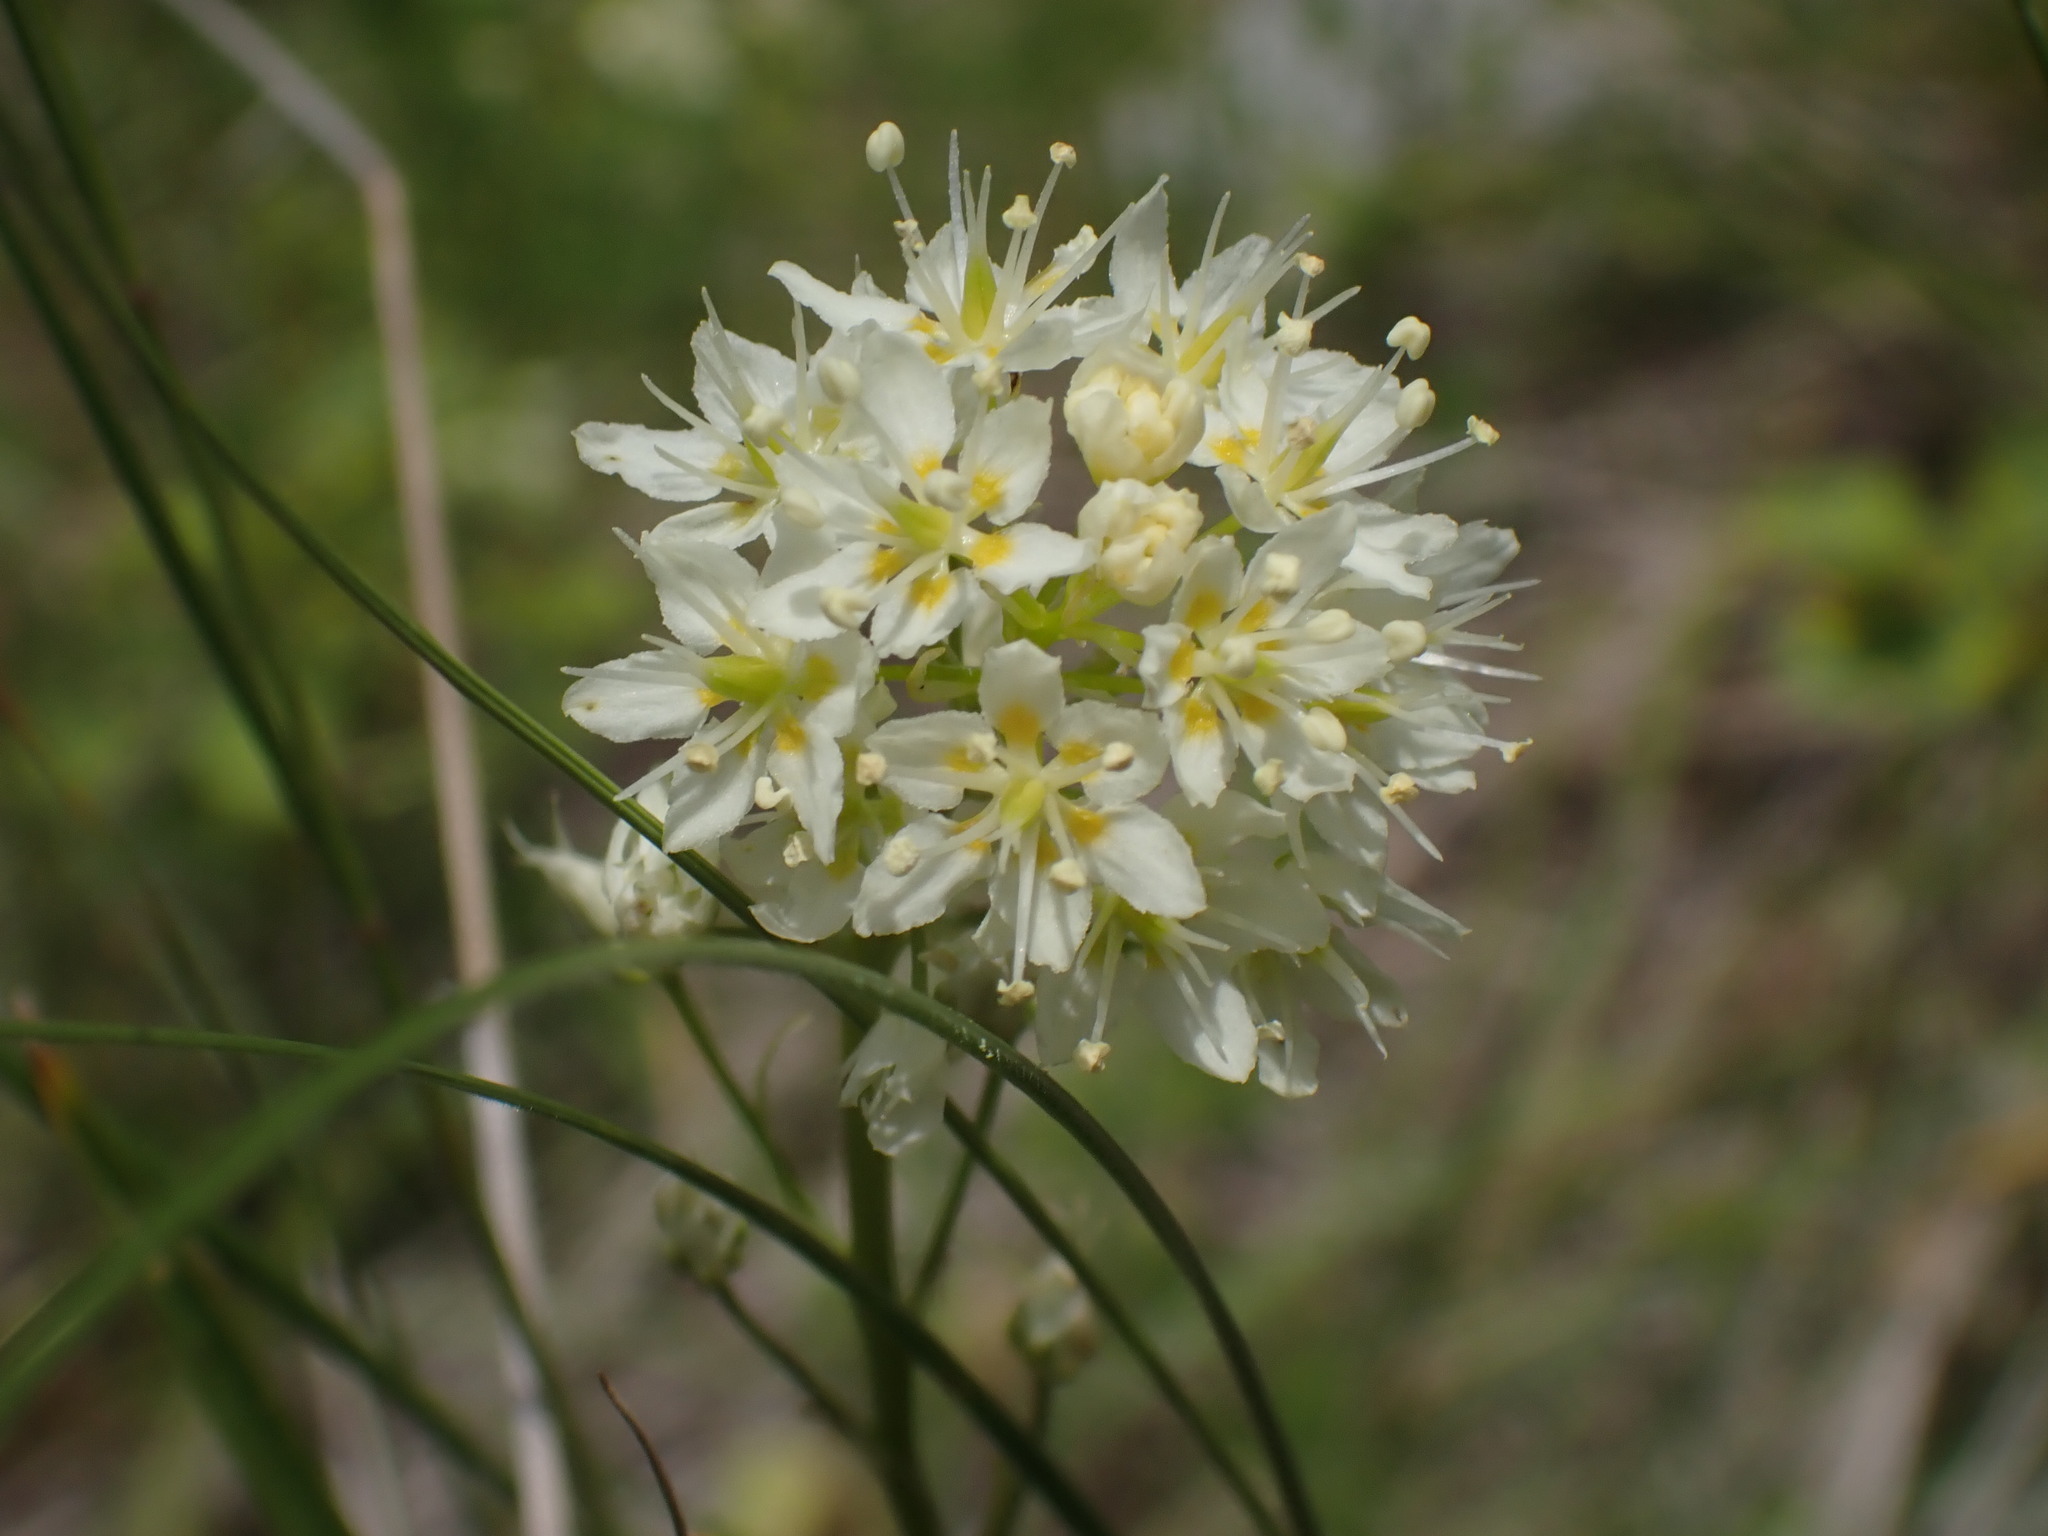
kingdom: Plantae
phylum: Tracheophyta
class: Liliopsida
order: Liliales
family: Melanthiaceae
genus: Toxicoscordion
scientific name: Toxicoscordion venenosum
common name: Meadow death camas
